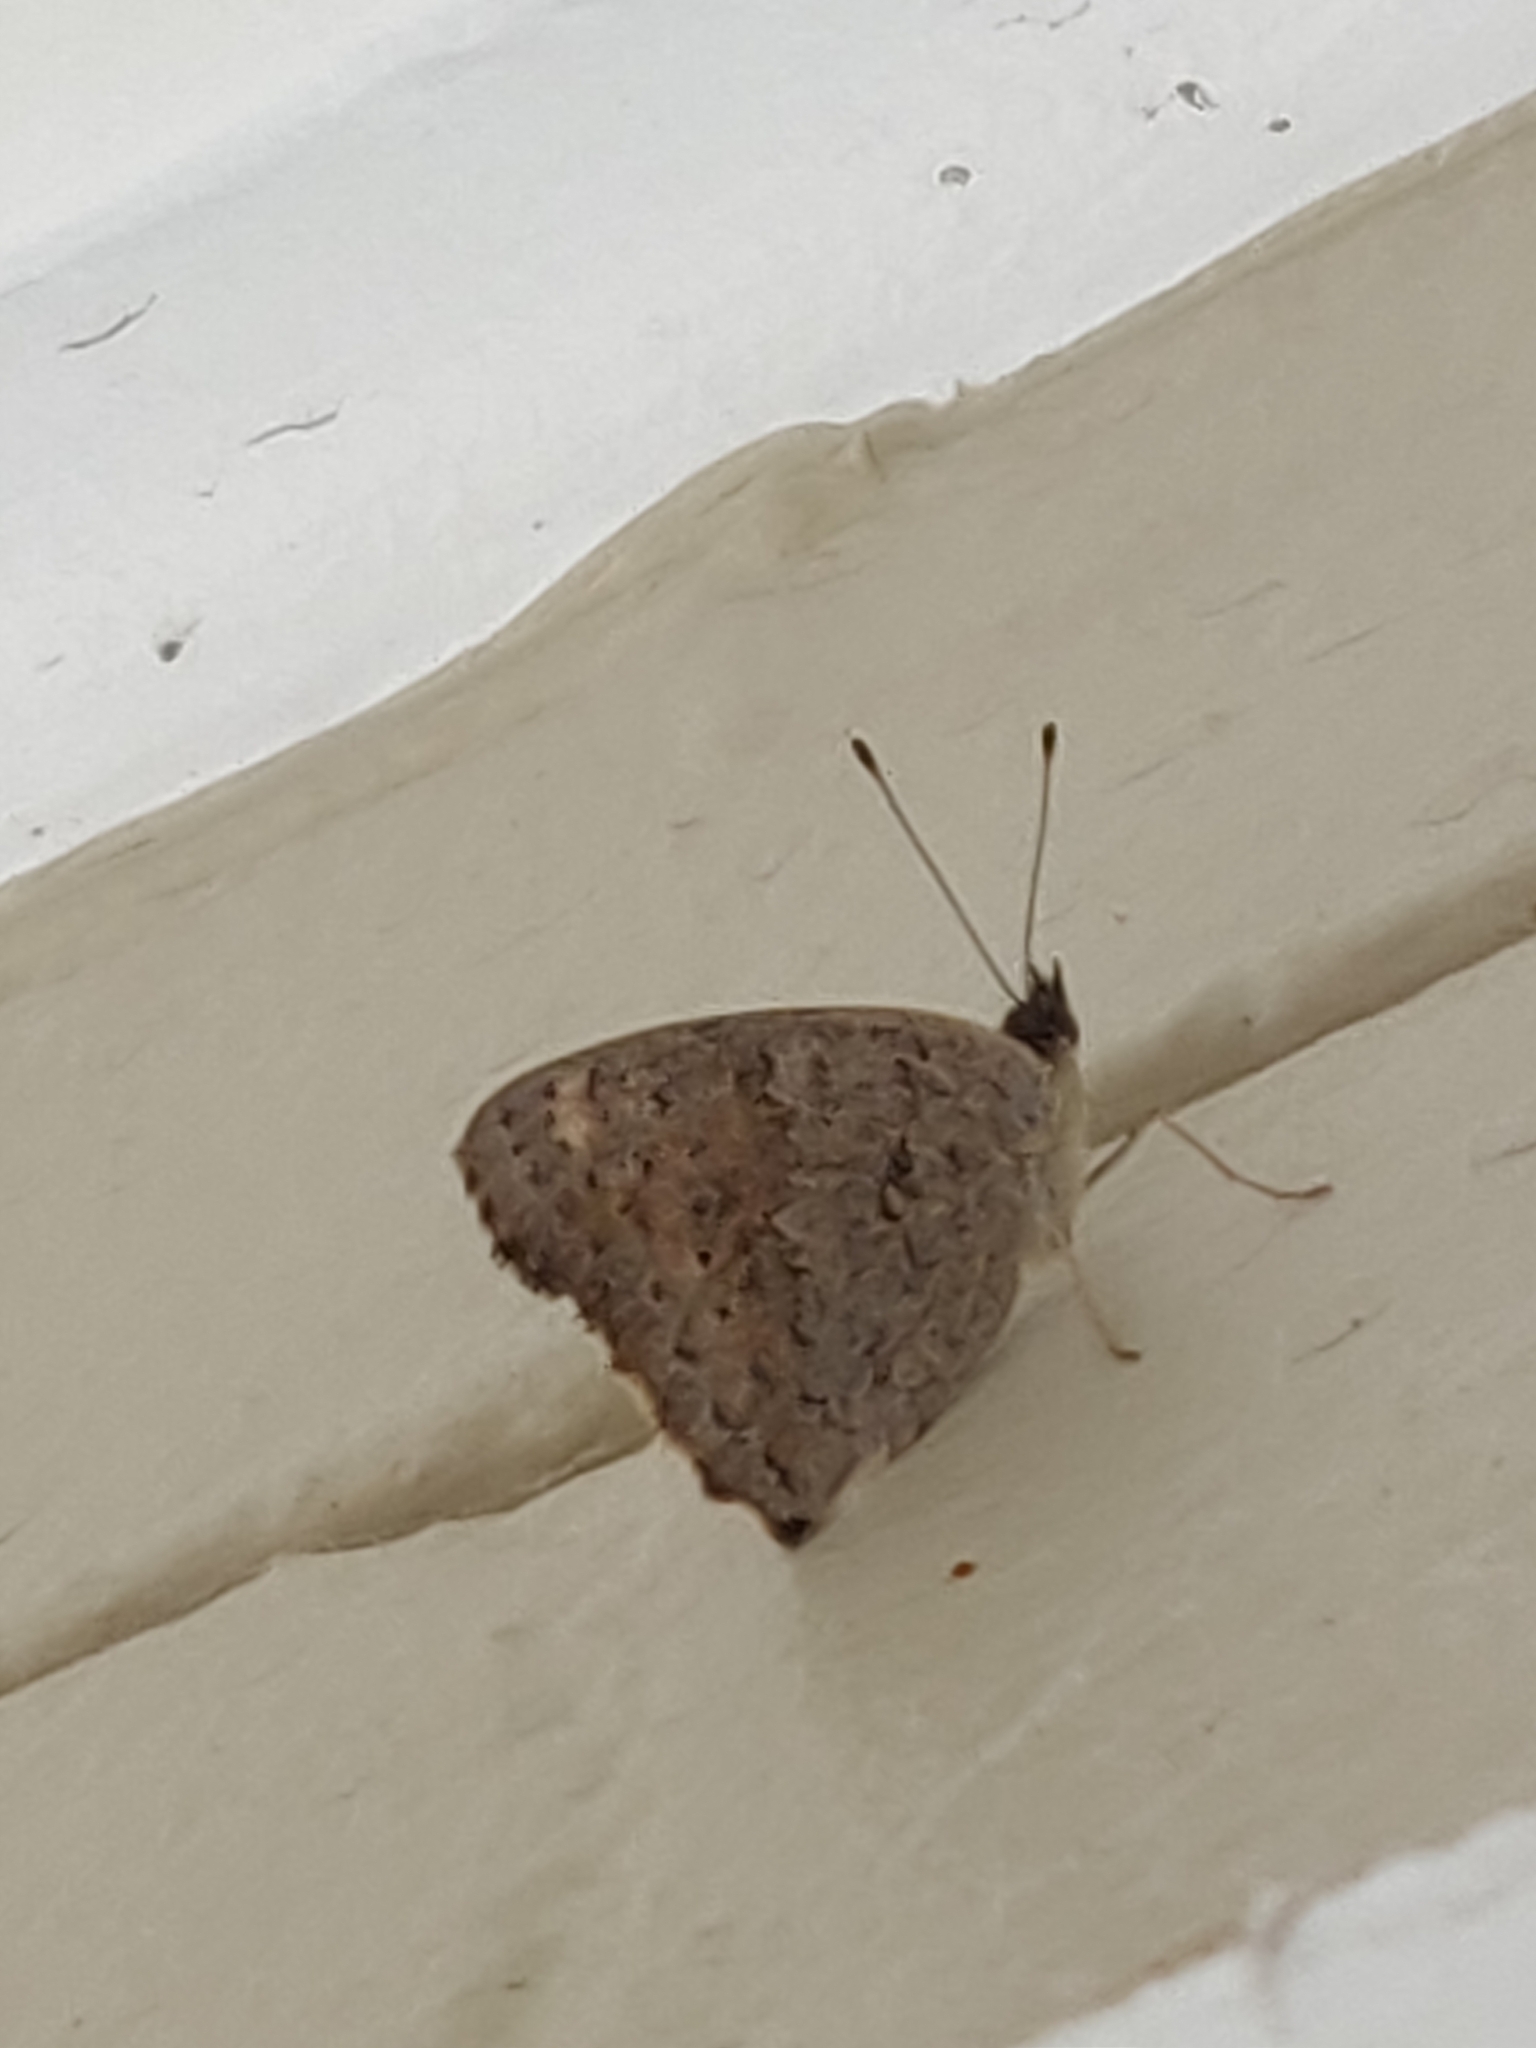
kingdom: Animalia
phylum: Arthropoda
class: Insecta
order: Lepidoptera
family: Nymphalidae
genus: Junonia
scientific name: Junonia villida
